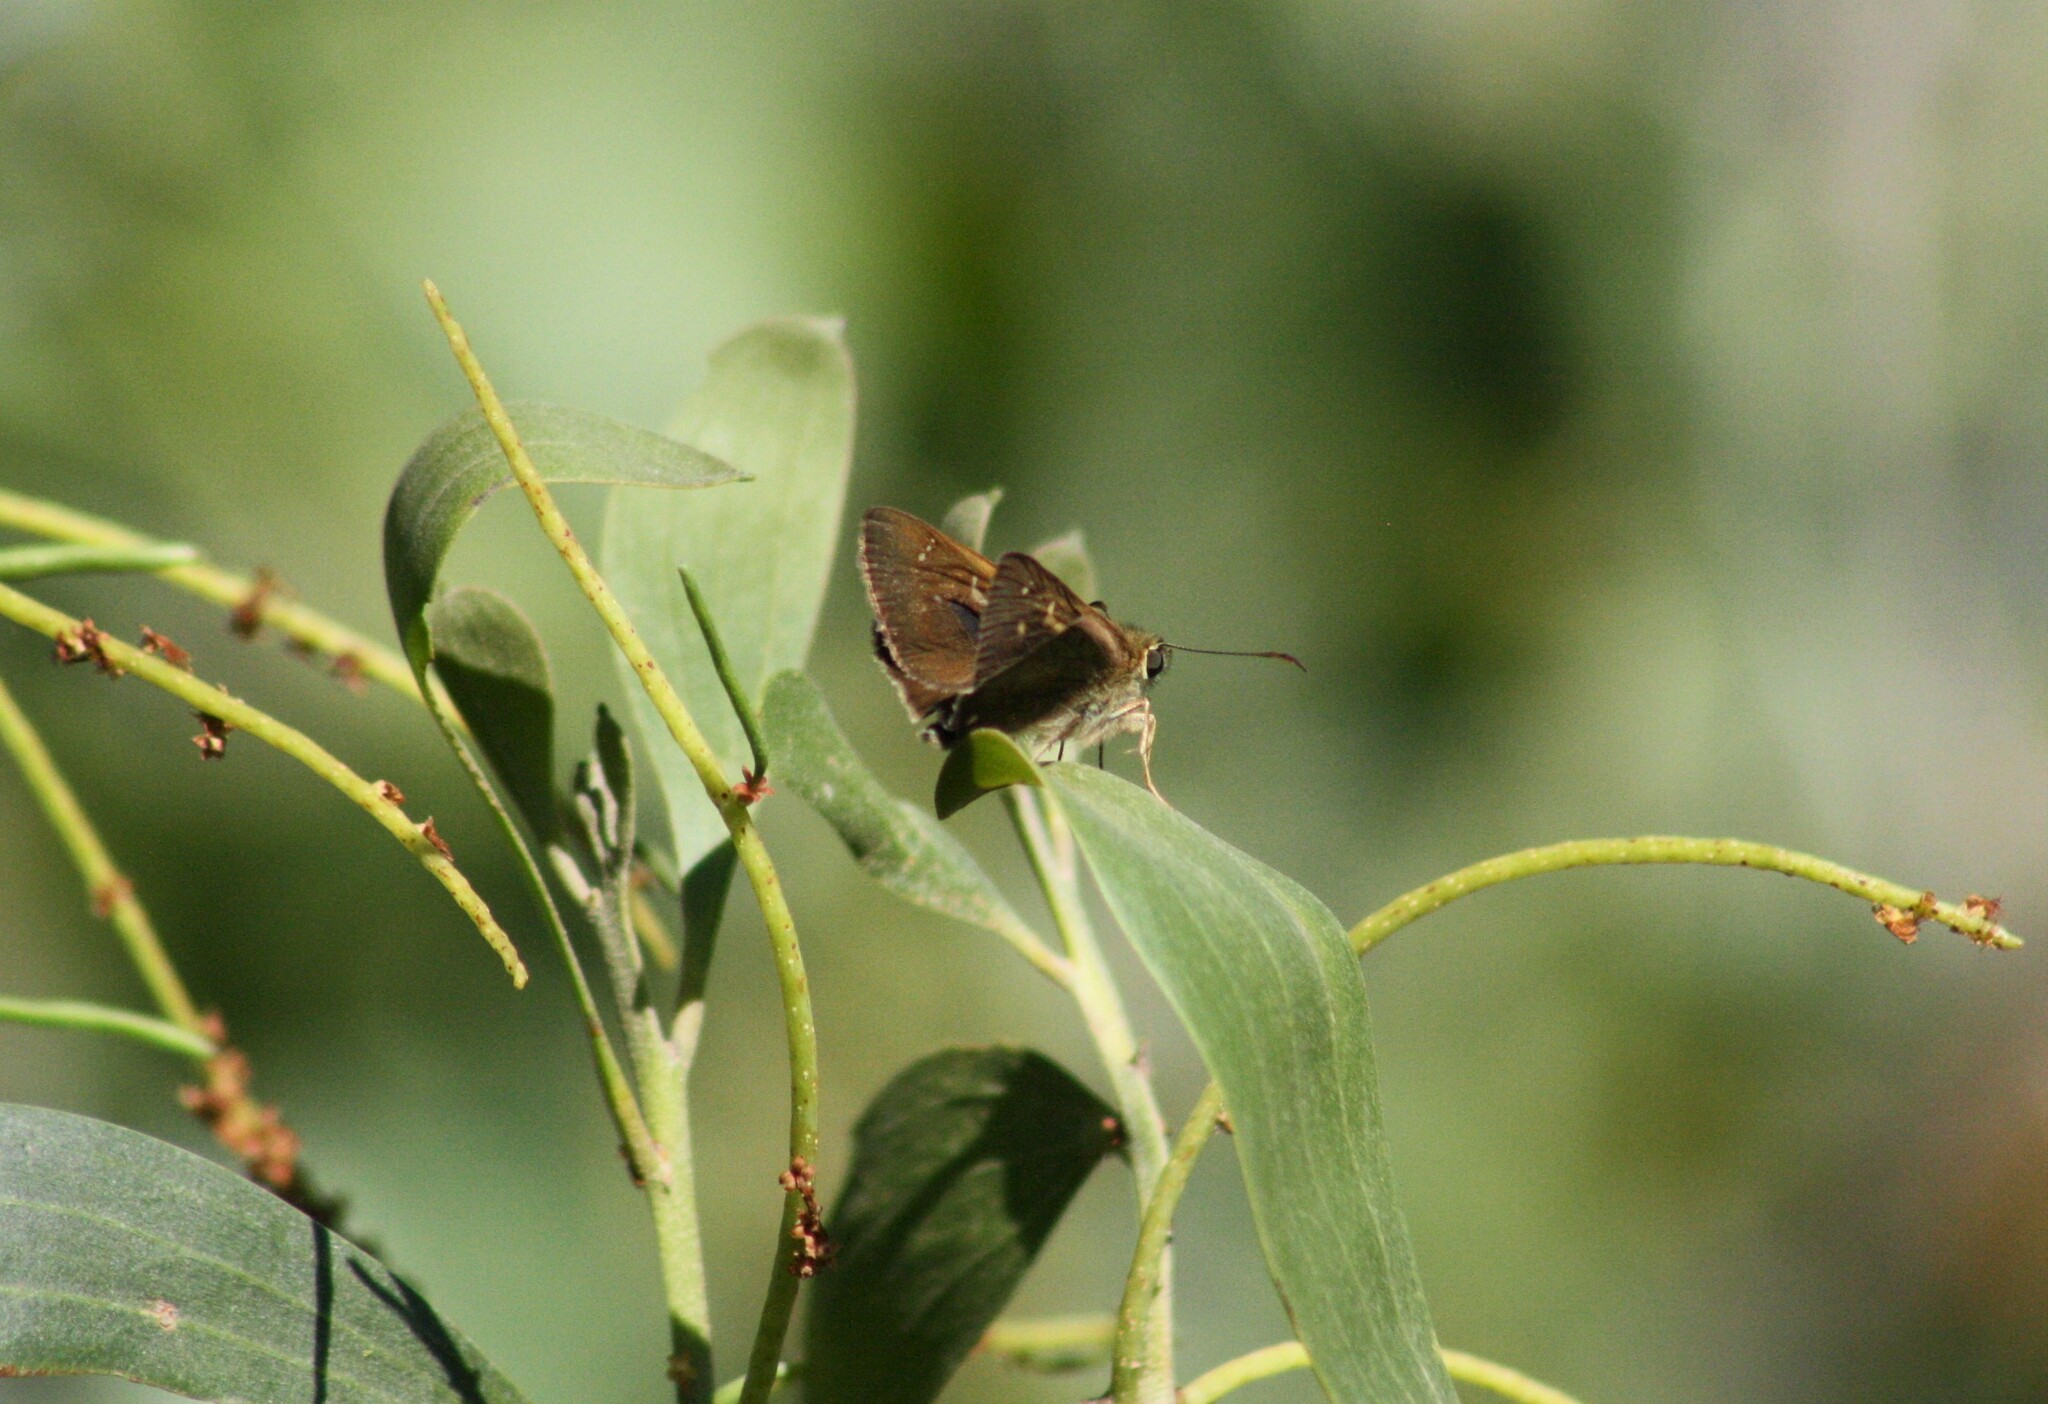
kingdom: Animalia
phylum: Arthropoda
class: Insecta
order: Lepidoptera
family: Hesperiidae
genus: Toxidia
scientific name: Toxidia
